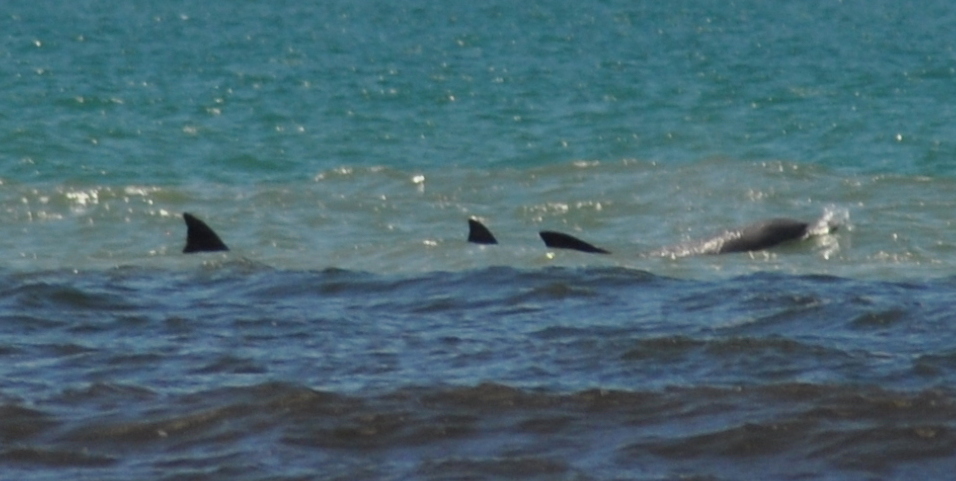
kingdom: Animalia
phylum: Chordata
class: Mammalia
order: Cetacea
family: Delphinidae
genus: Tursiops
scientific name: Tursiops truncatus
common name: Bottlenose dolphin
